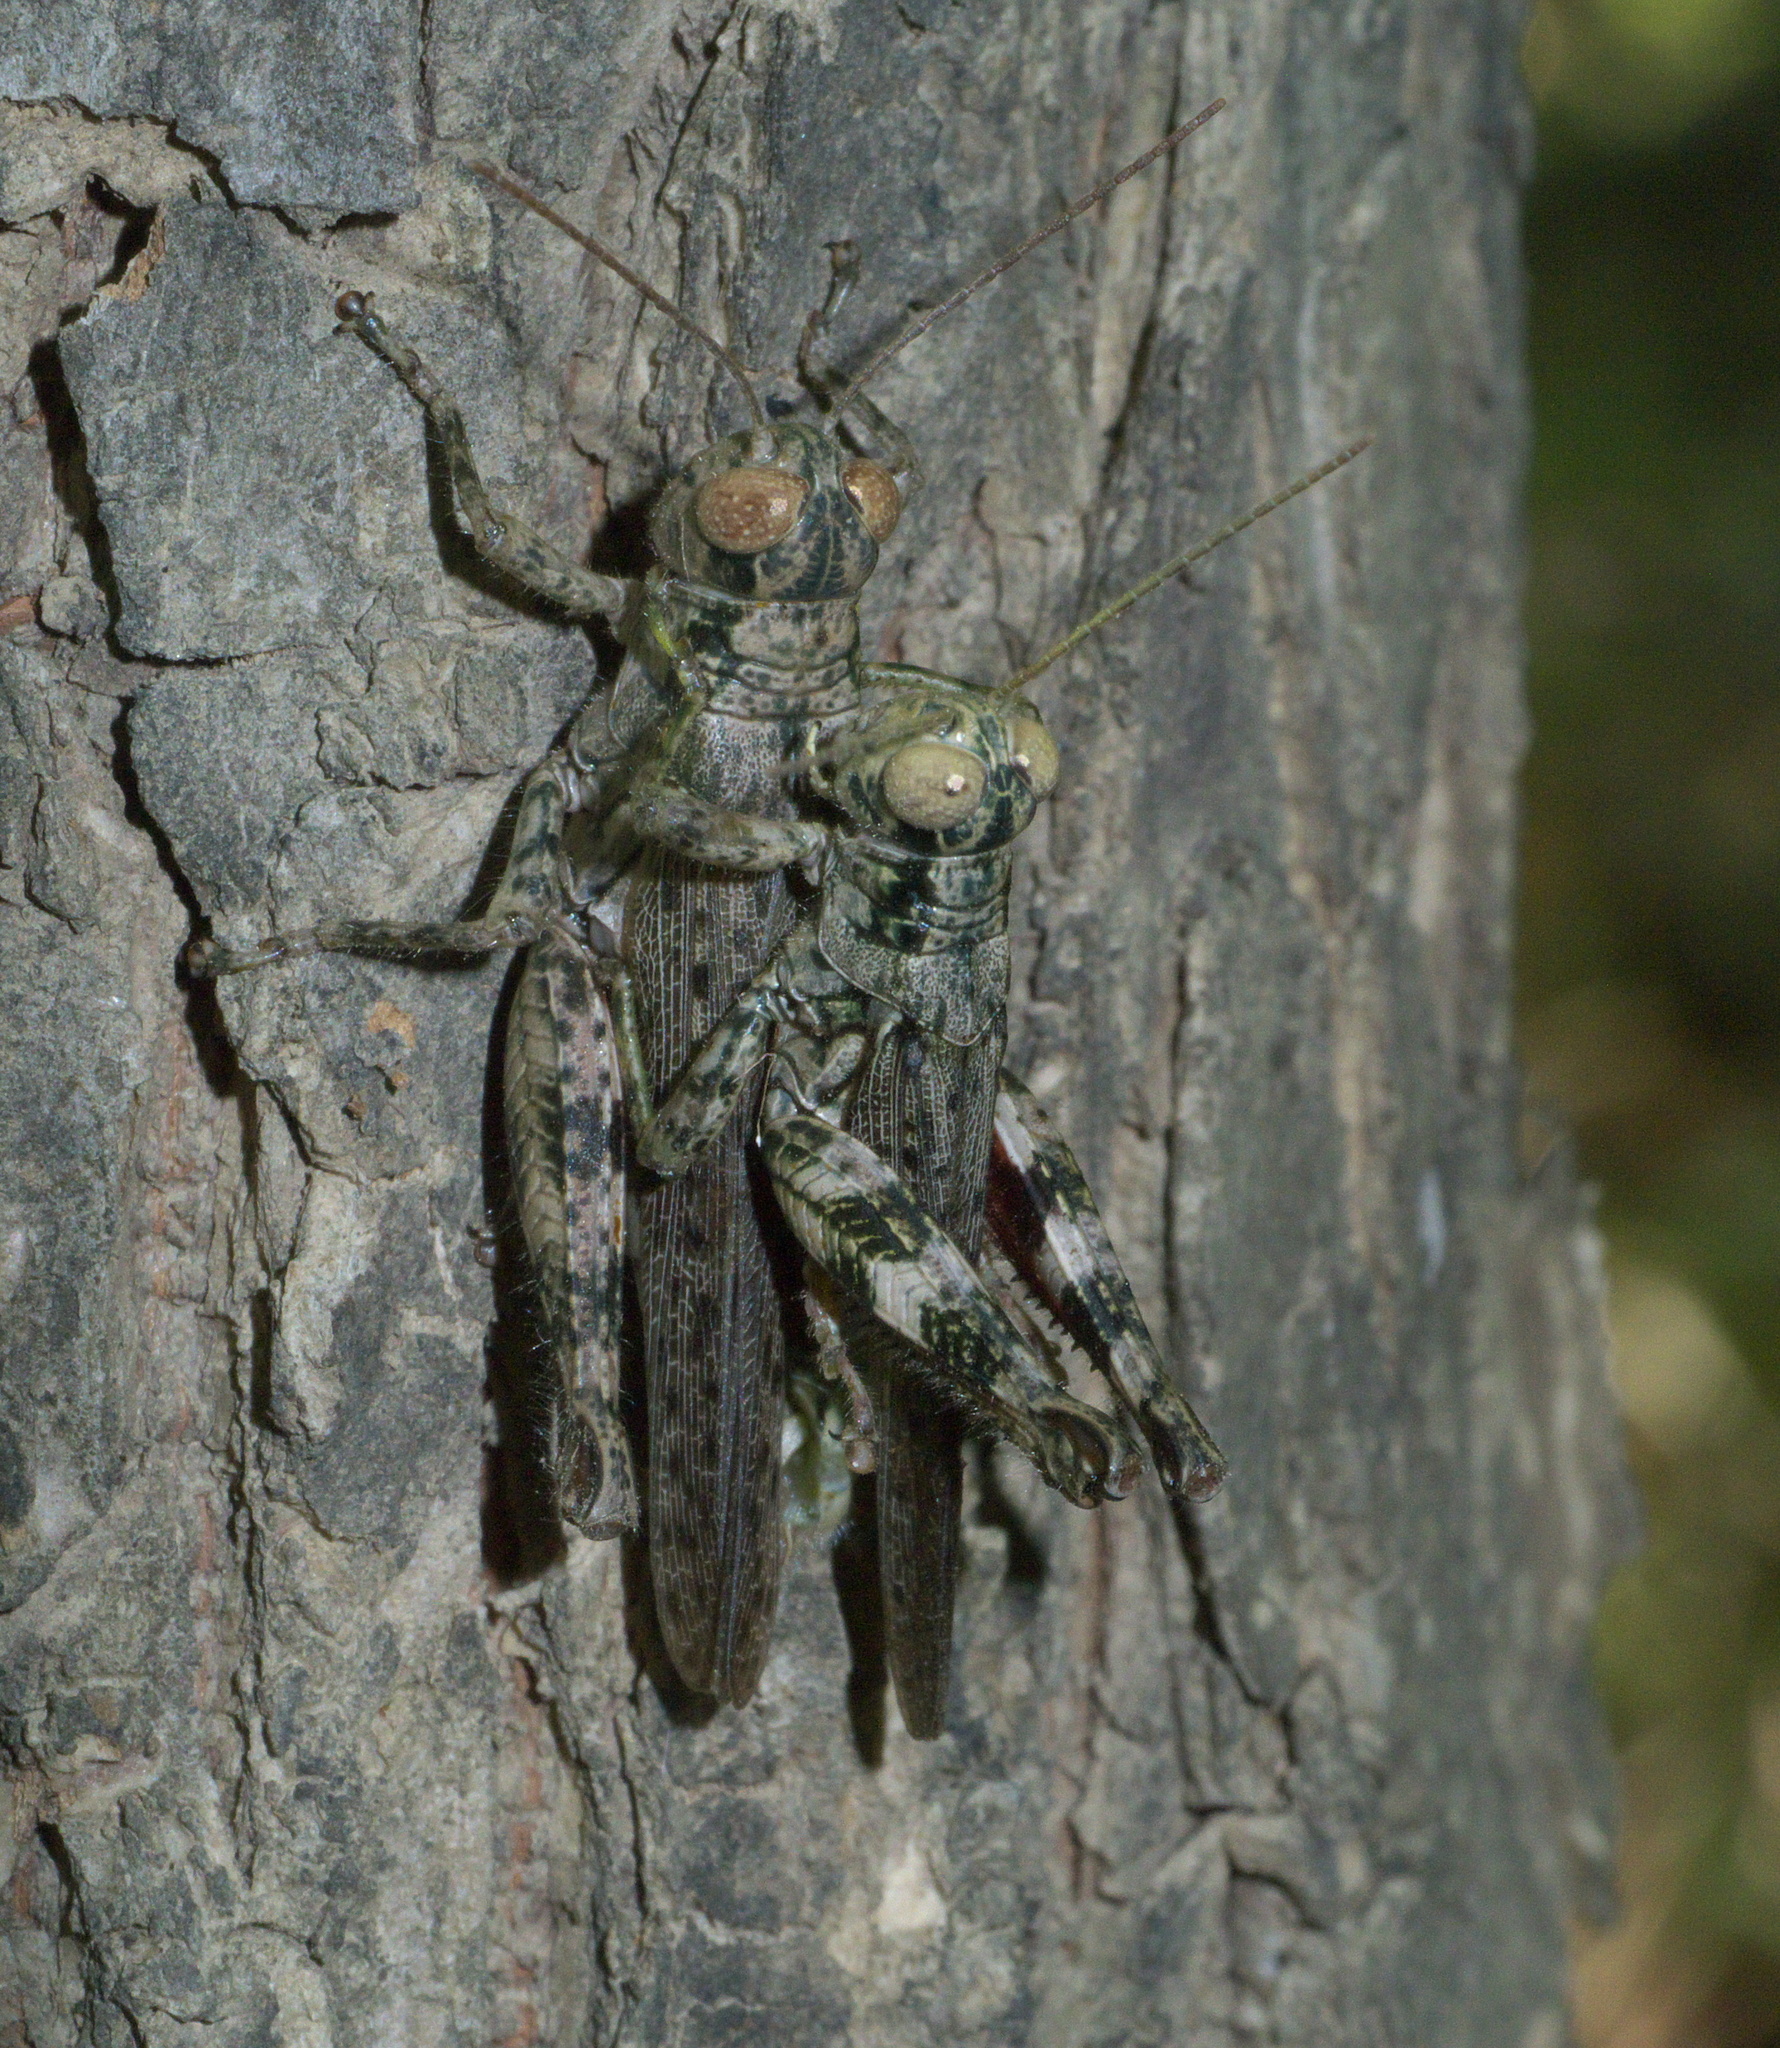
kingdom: Animalia
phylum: Arthropoda
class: Insecta
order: Orthoptera
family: Acrididae
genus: Melanoplus
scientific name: Melanoplus punctulatus
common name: Pine-tree spur-throat grasshopper
